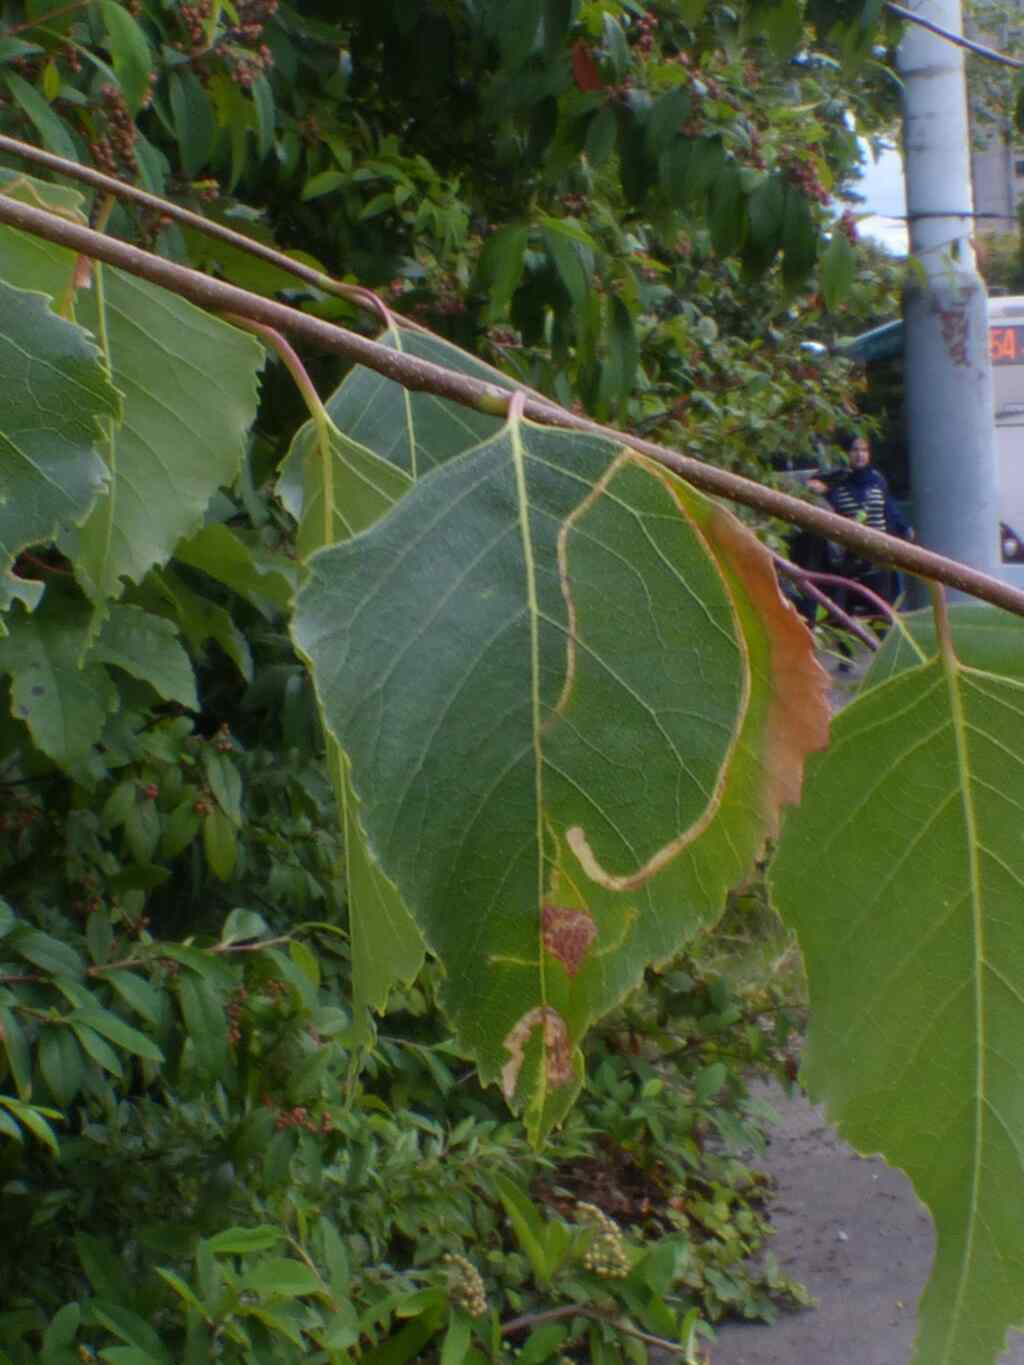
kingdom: Animalia
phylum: Arthropoda
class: Insecta
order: Lepidoptera
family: Lyonetiidae
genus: Lyonetia
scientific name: Lyonetia clerkella
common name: Apple leaf miner
